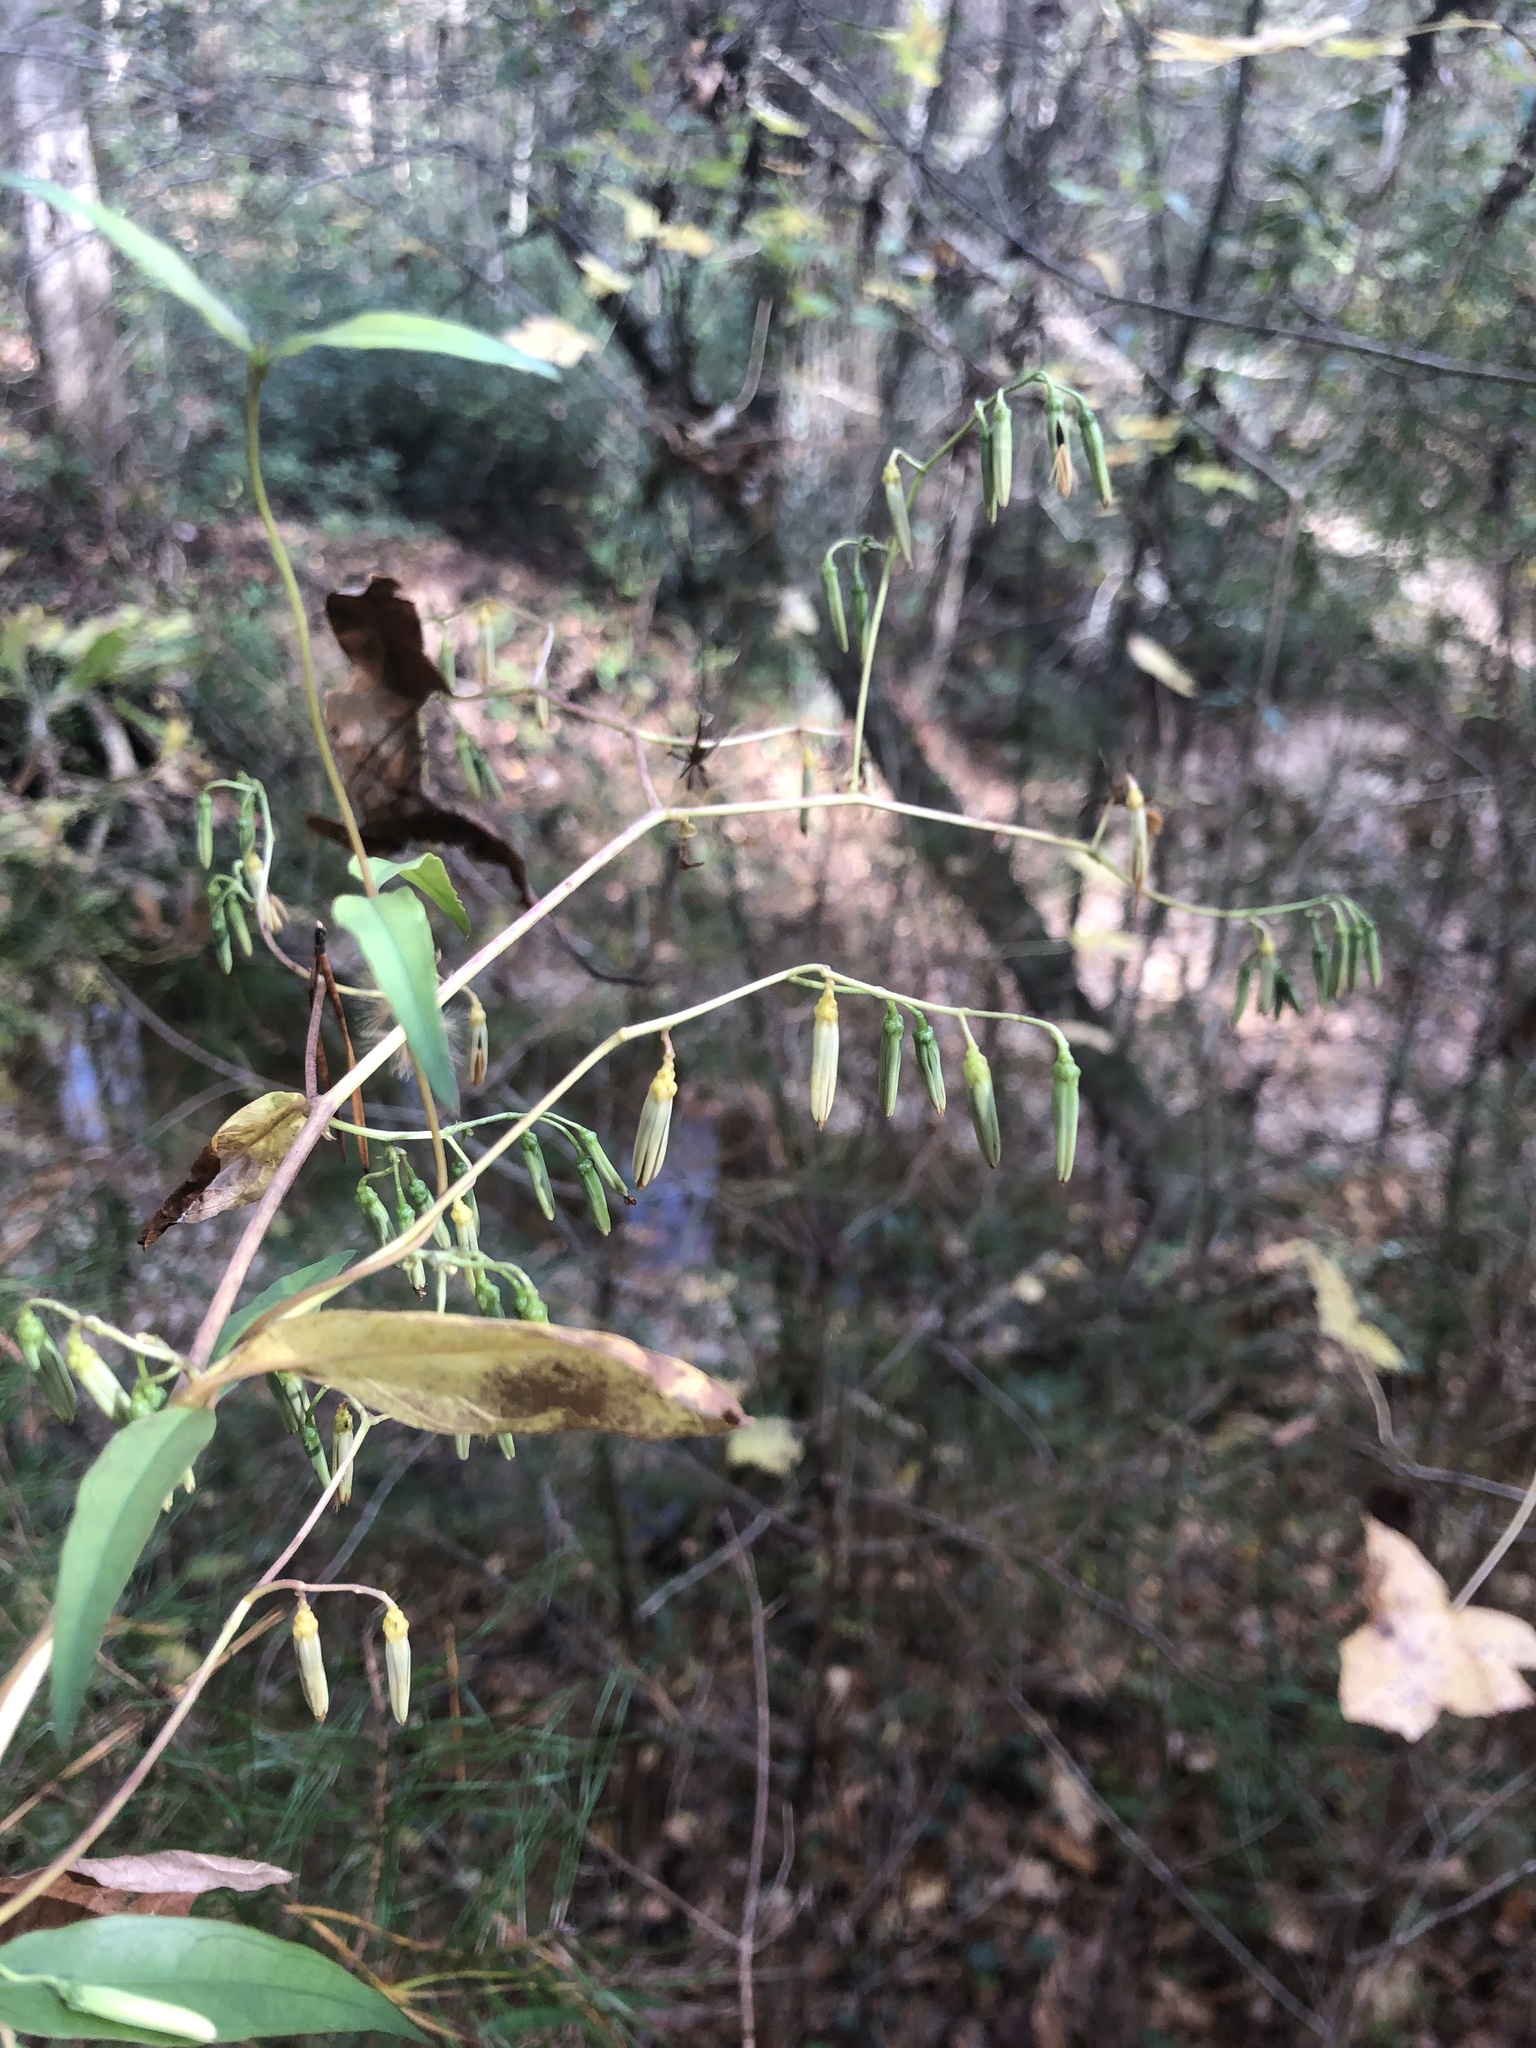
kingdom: Plantae
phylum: Tracheophyta
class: Magnoliopsida
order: Asterales
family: Asteraceae
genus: Nabalus
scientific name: Nabalus altissima
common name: Tall rattlesnakeroot
